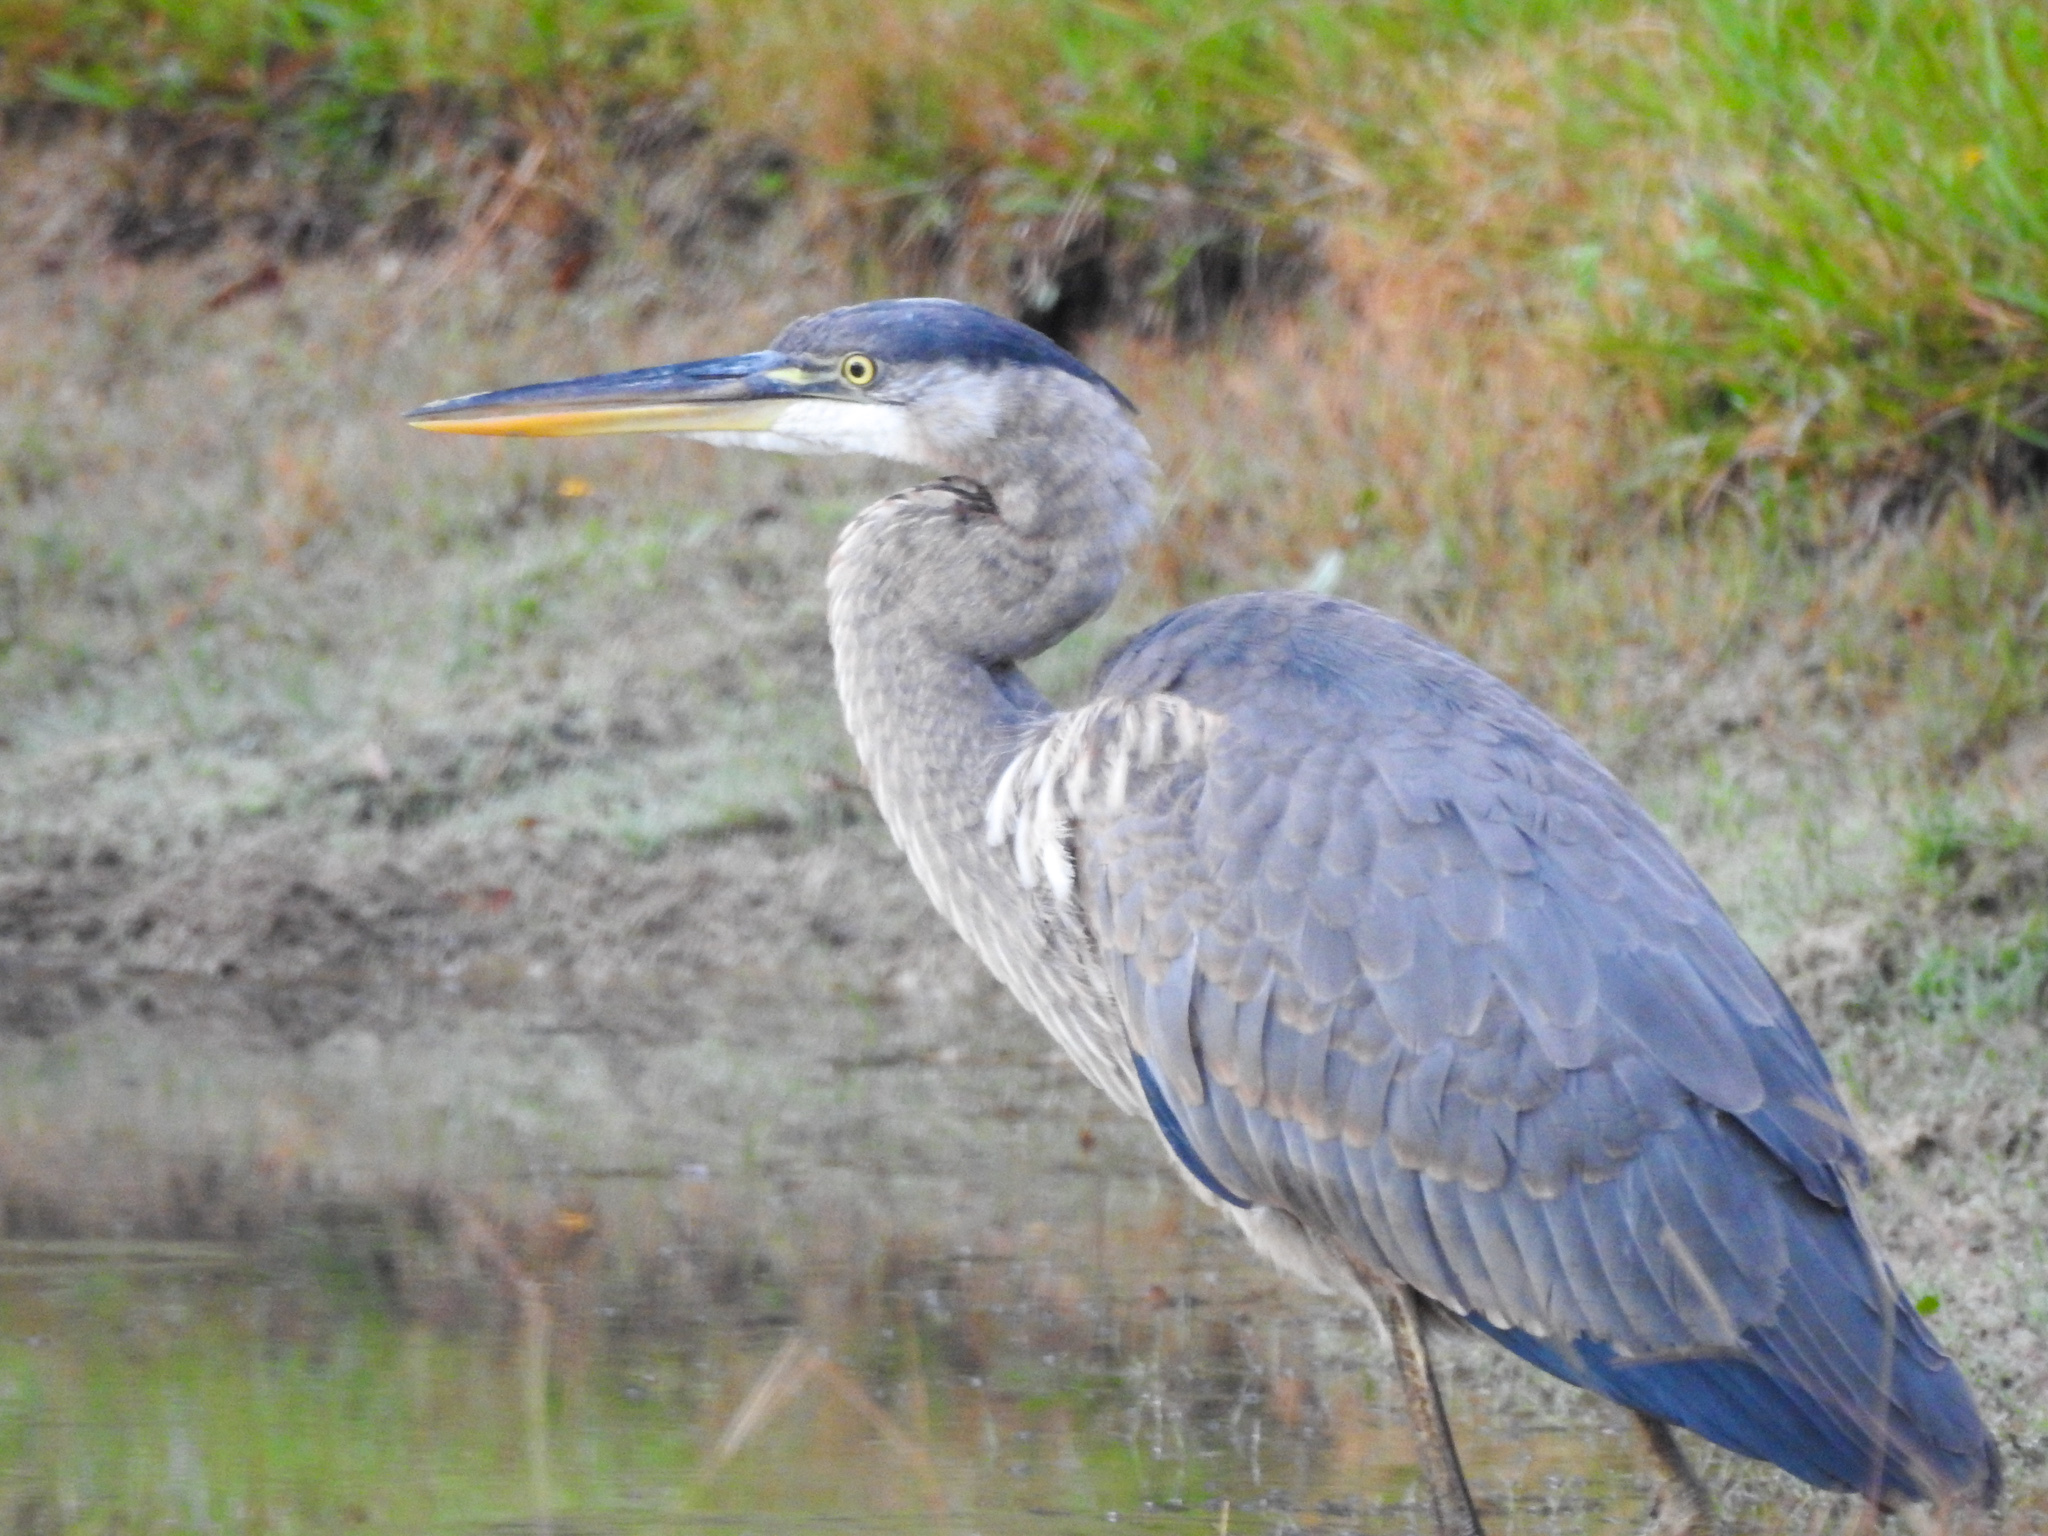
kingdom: Animalia
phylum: Chordata
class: Aves
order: Pelecaniformes
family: Ardeidae
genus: Ardea
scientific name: Ardea herodias
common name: Great blue heron
